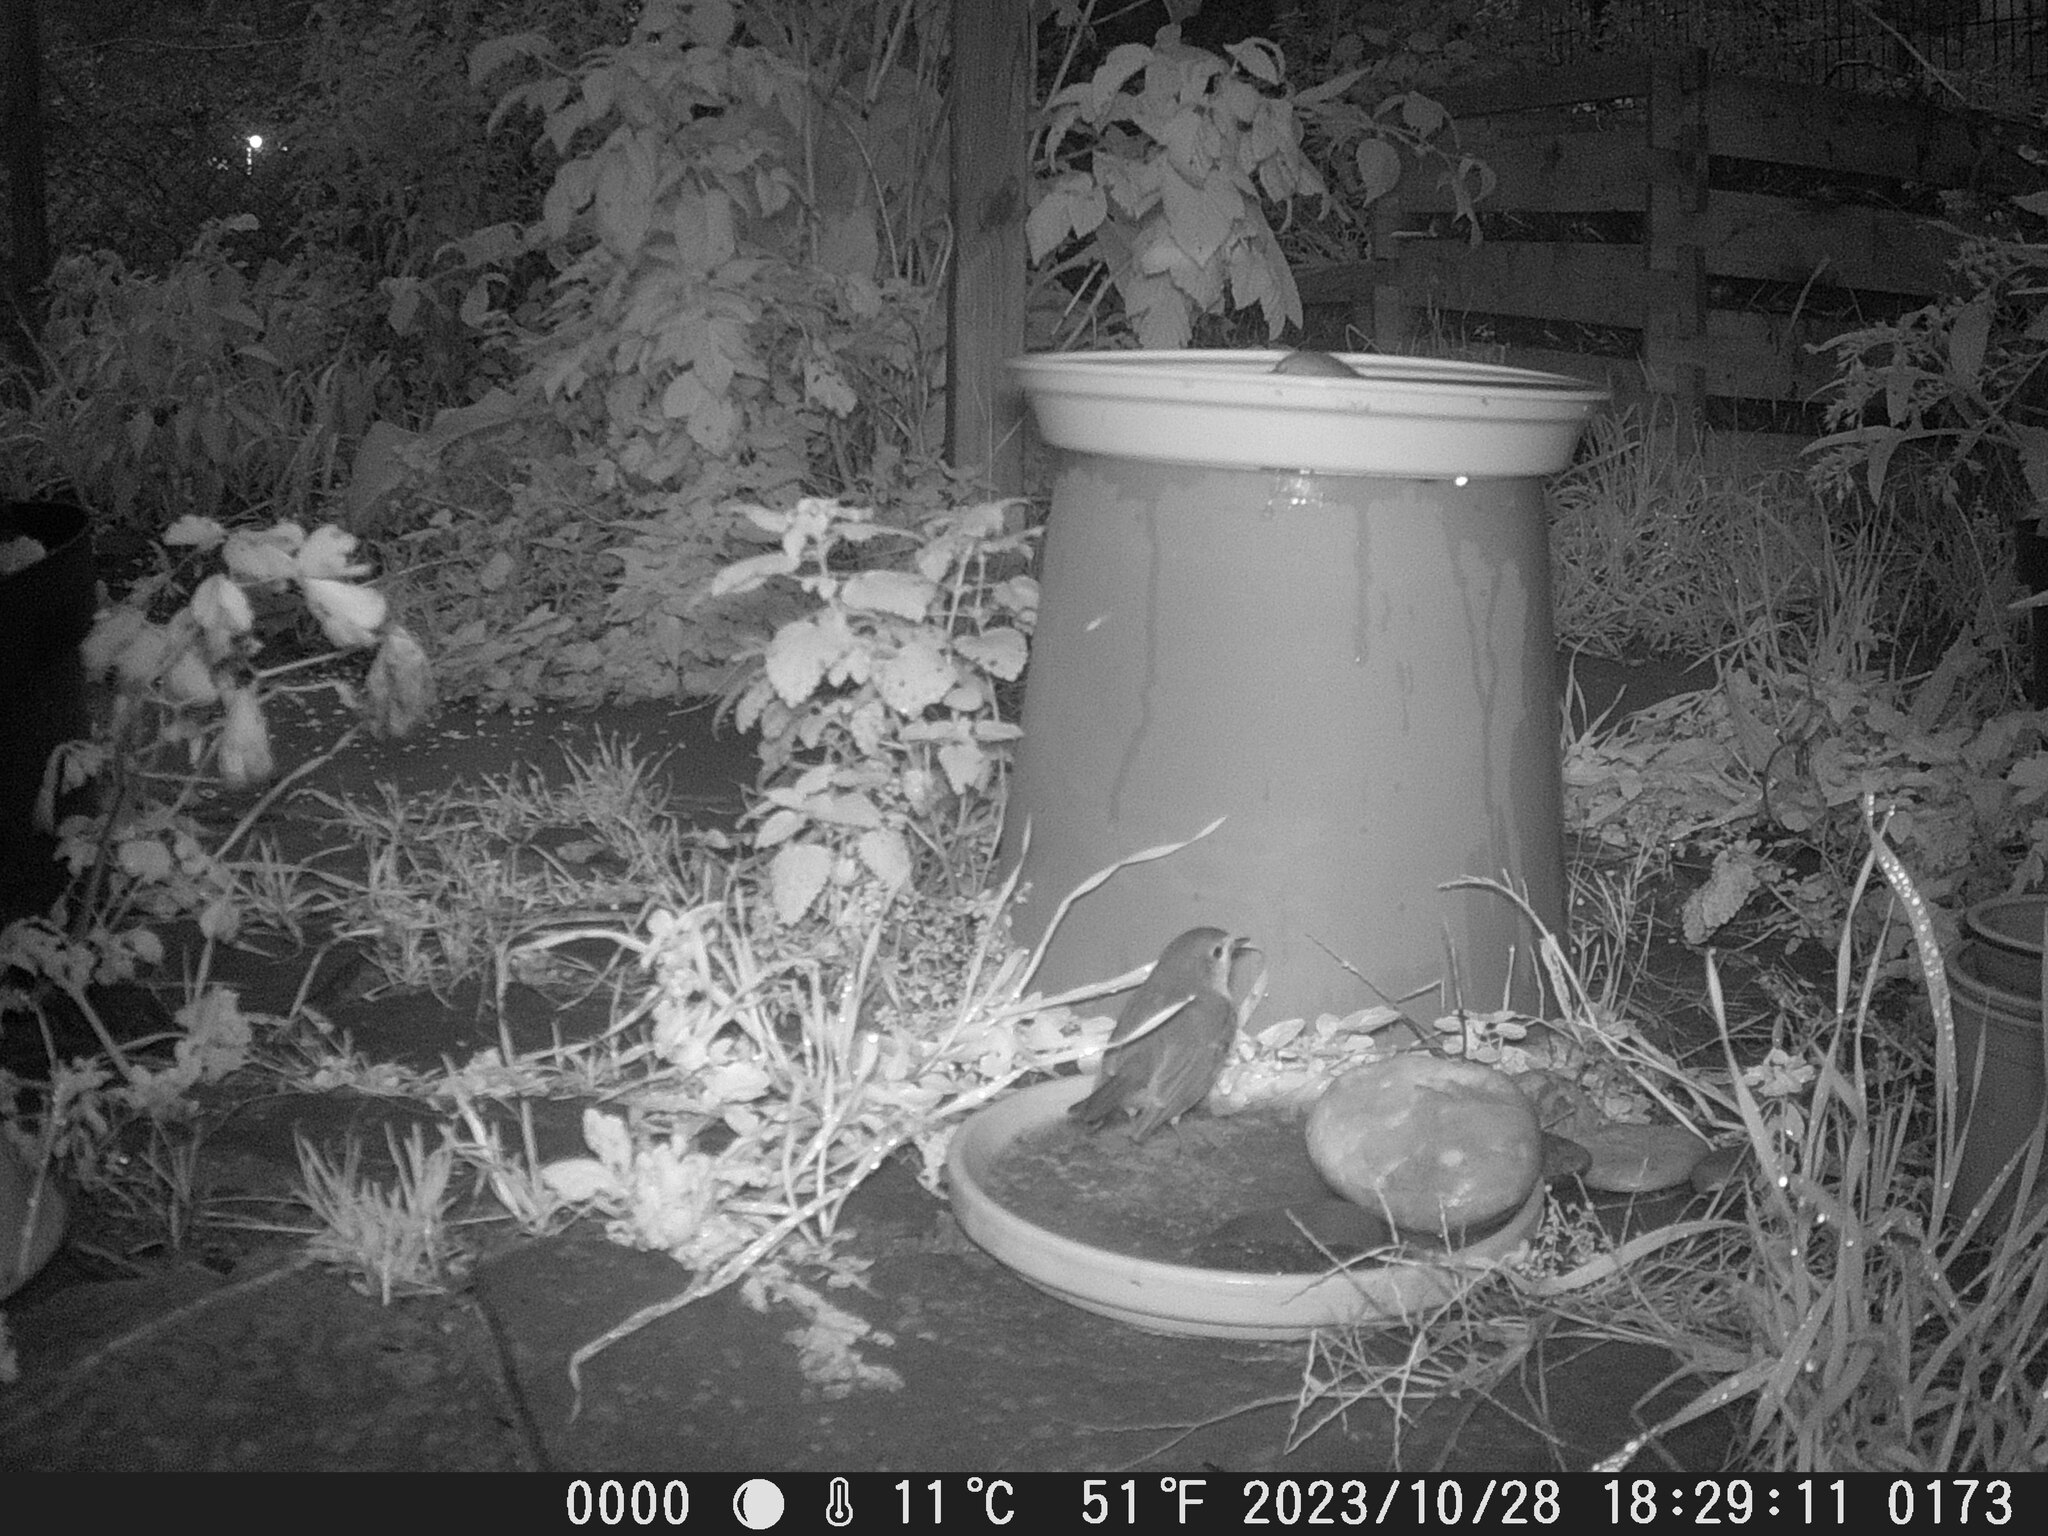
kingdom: Animalia
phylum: Chordata
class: Aves
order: Passeriformes
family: Muscicapidae
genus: Erithacus
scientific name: Erithacus rubecula
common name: European robin
